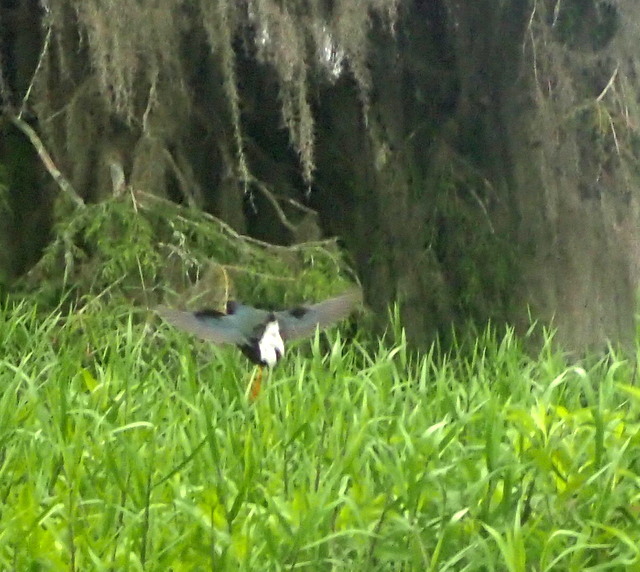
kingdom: Animalia
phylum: Chordata
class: Aves
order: Gruiformes
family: Rallidae
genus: Porphyrio
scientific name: Porphyrio martinica
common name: Purple gallinule
